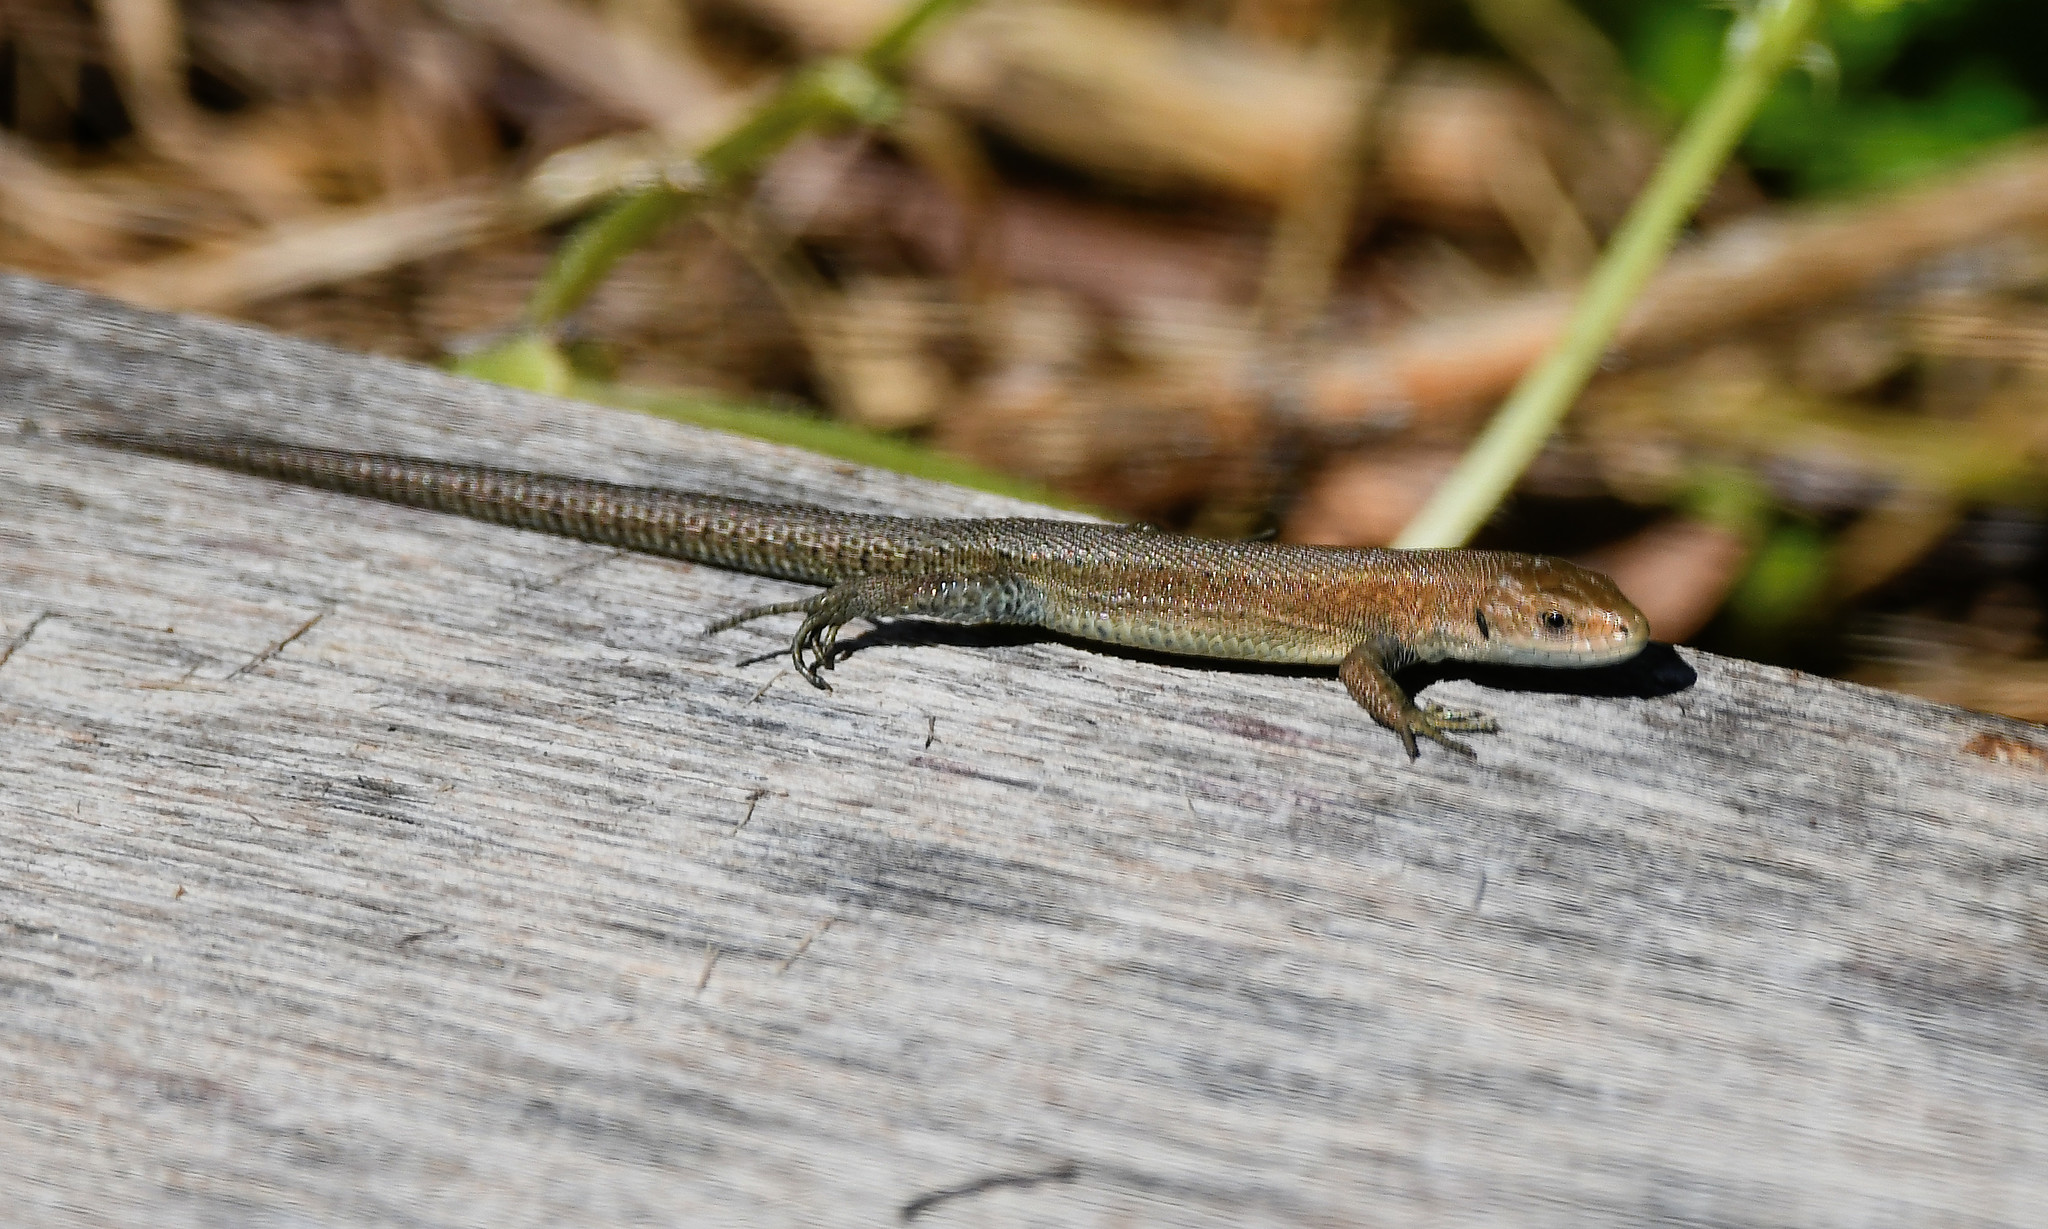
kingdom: Animalia
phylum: Chordata
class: Squamata
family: Lacertidae
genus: Zootoca
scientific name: Zootoca vivipara
